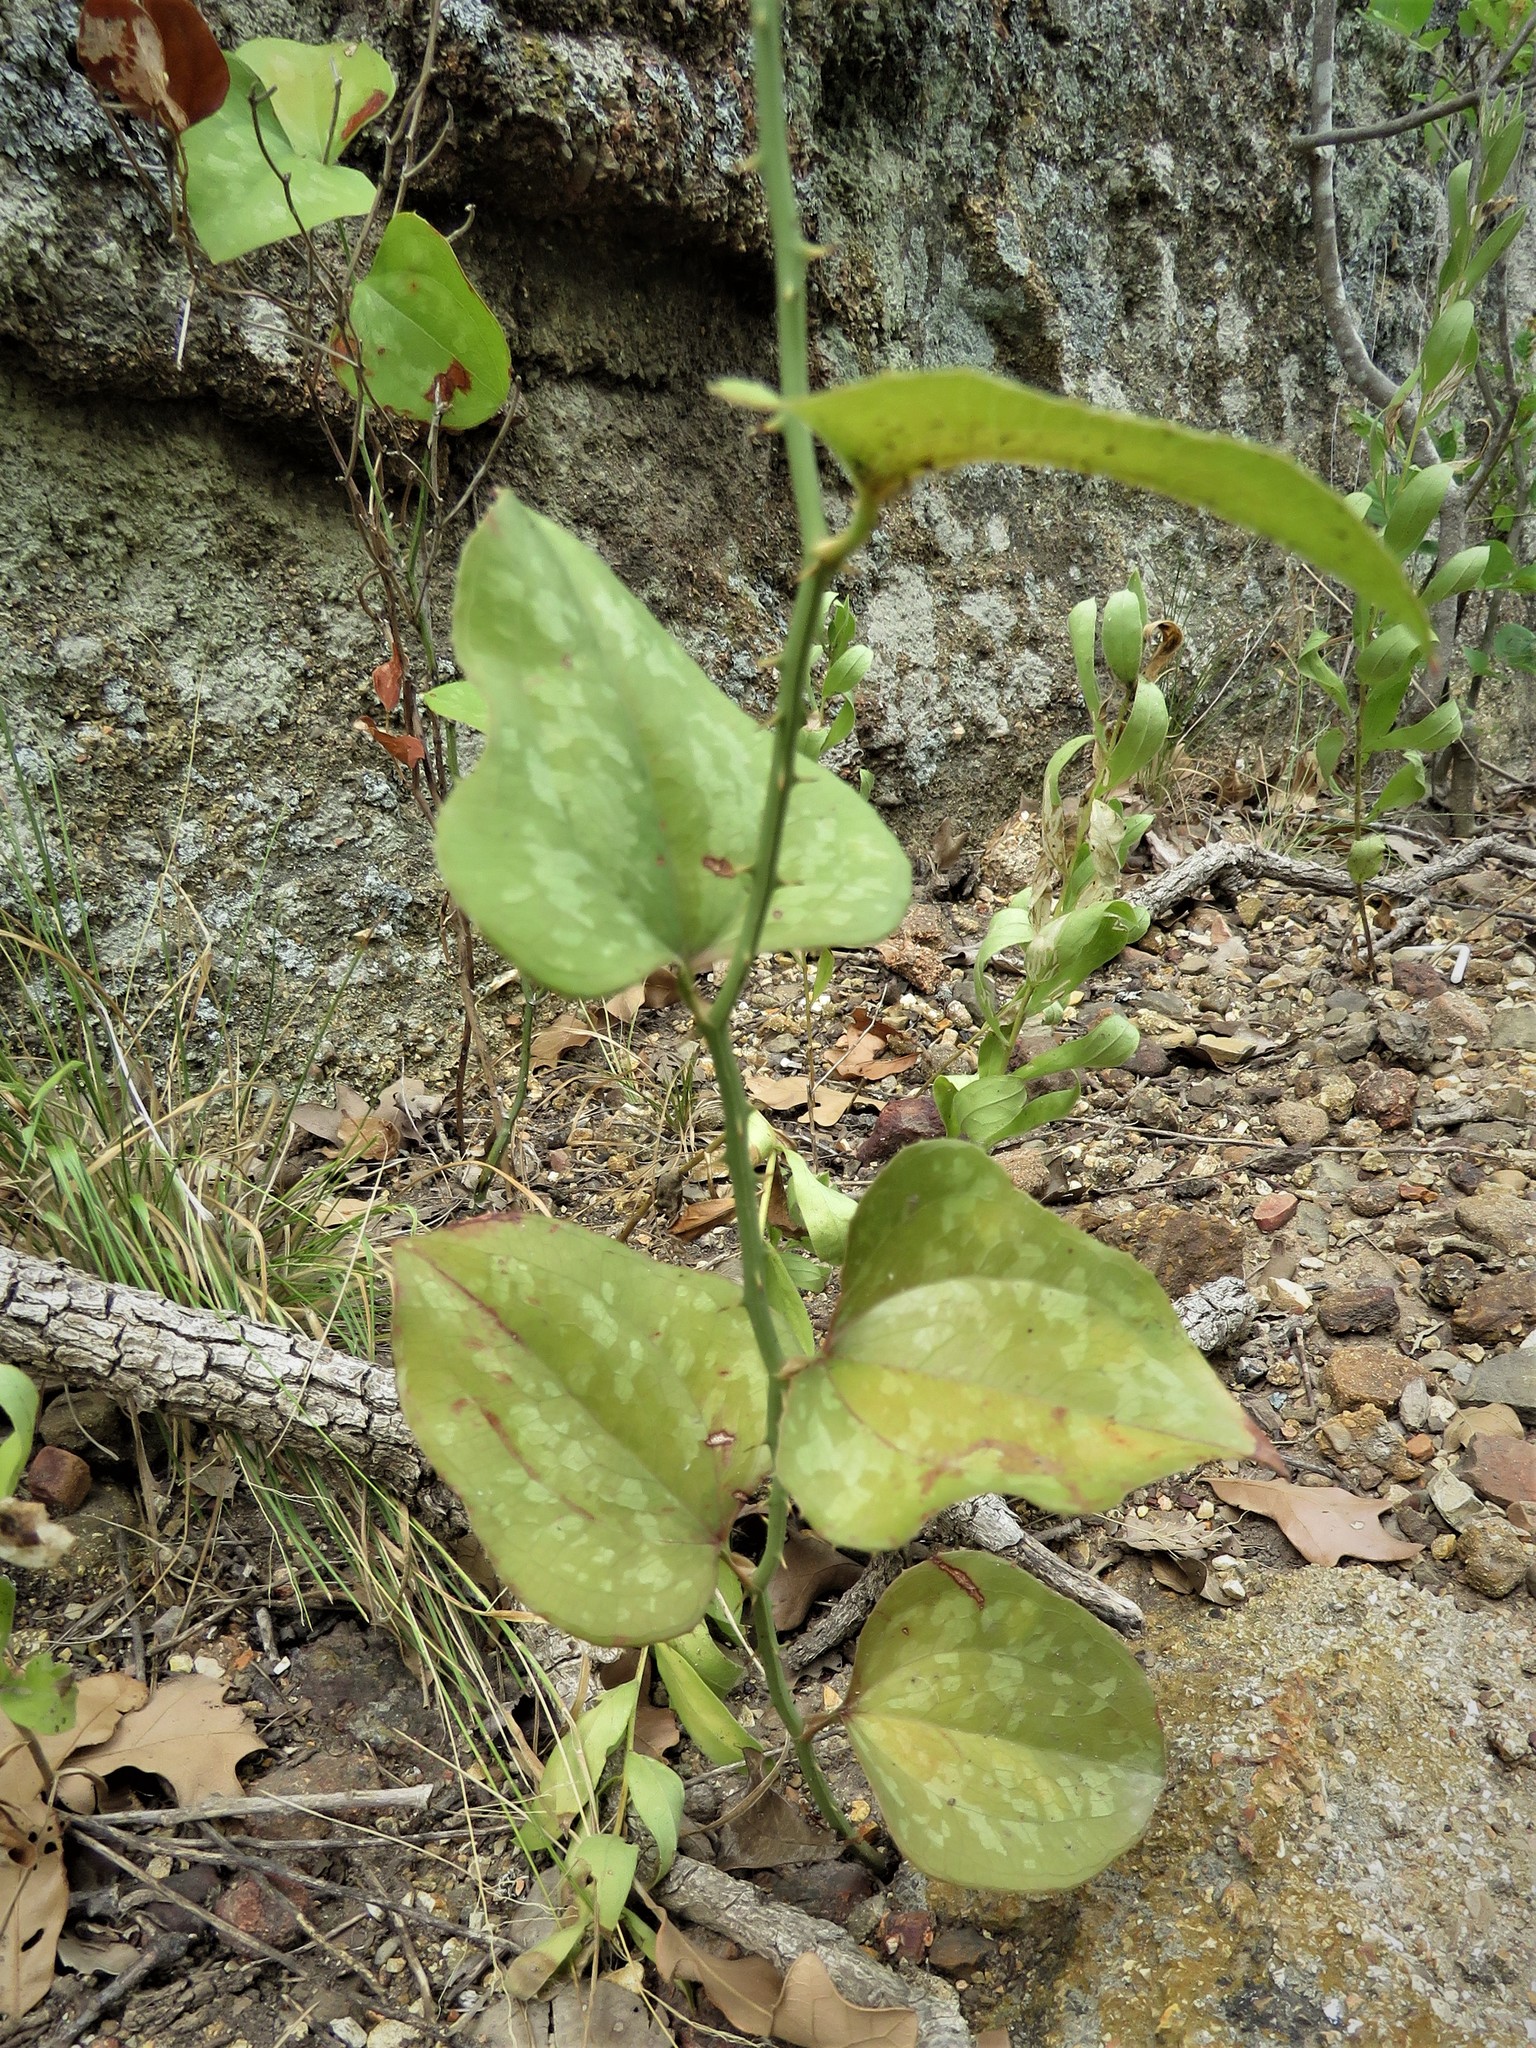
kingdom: Plantae
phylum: Tracheophyta
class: Liliopsida
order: Liliales
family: Smilacaceae
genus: Smilax
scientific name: Smilax bona-nox
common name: Catbrier
